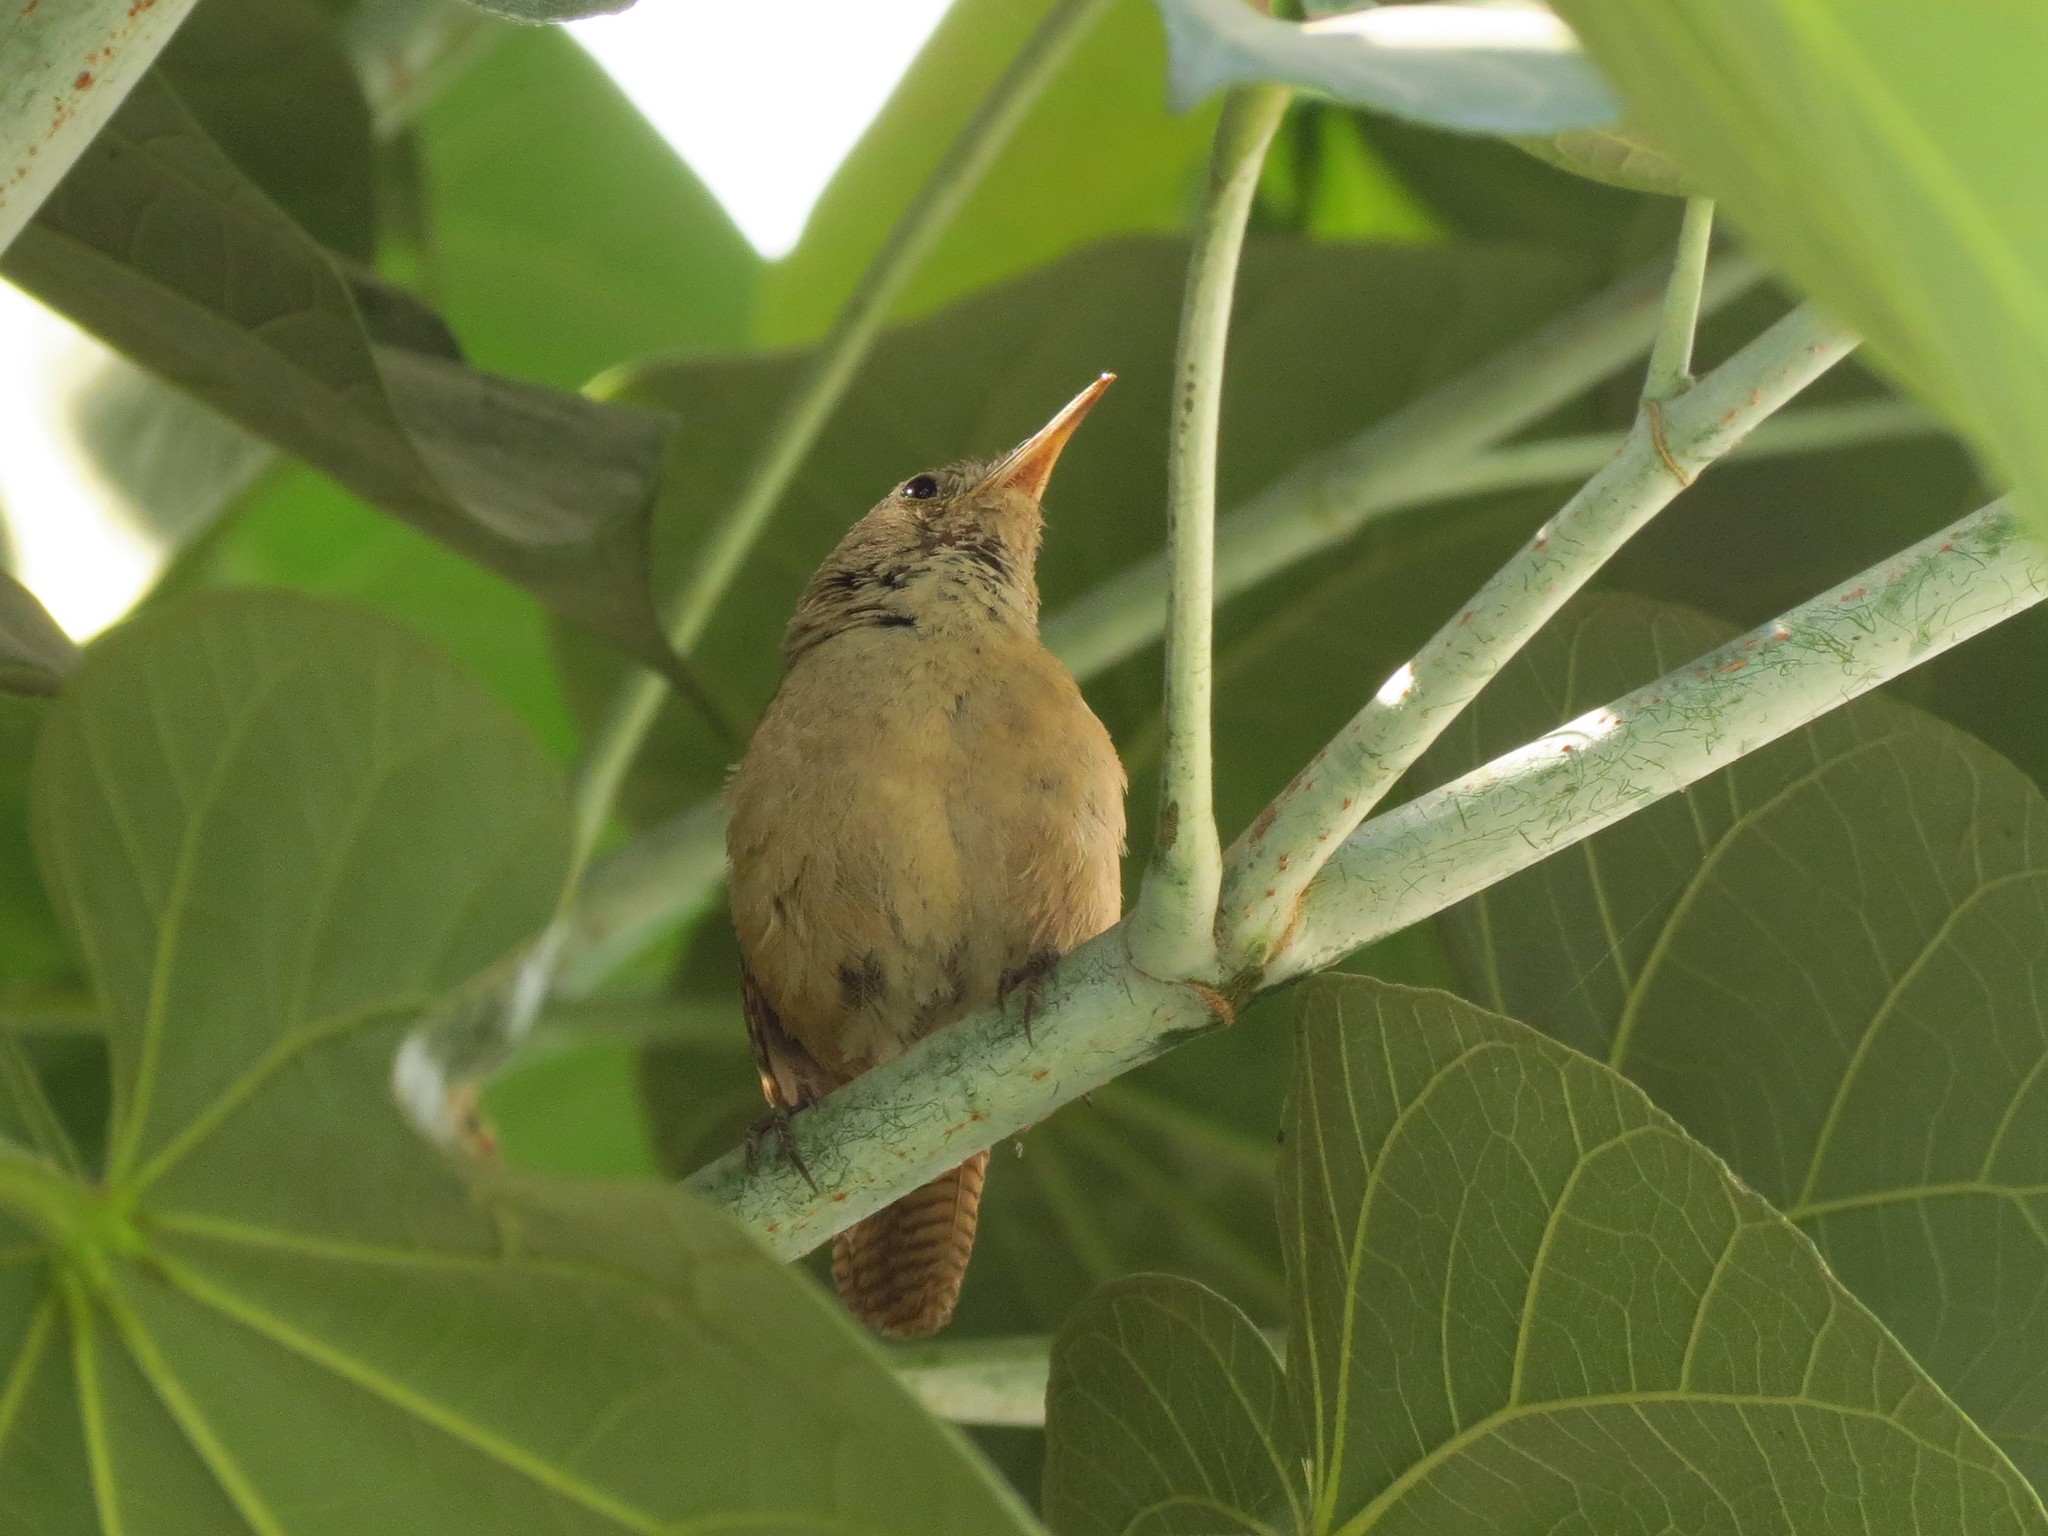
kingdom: Animalia
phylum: Chordata
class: Aves
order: Passeriformes
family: Troglodytidae
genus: Troglodytes
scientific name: Troglodytes aedon
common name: House wren
